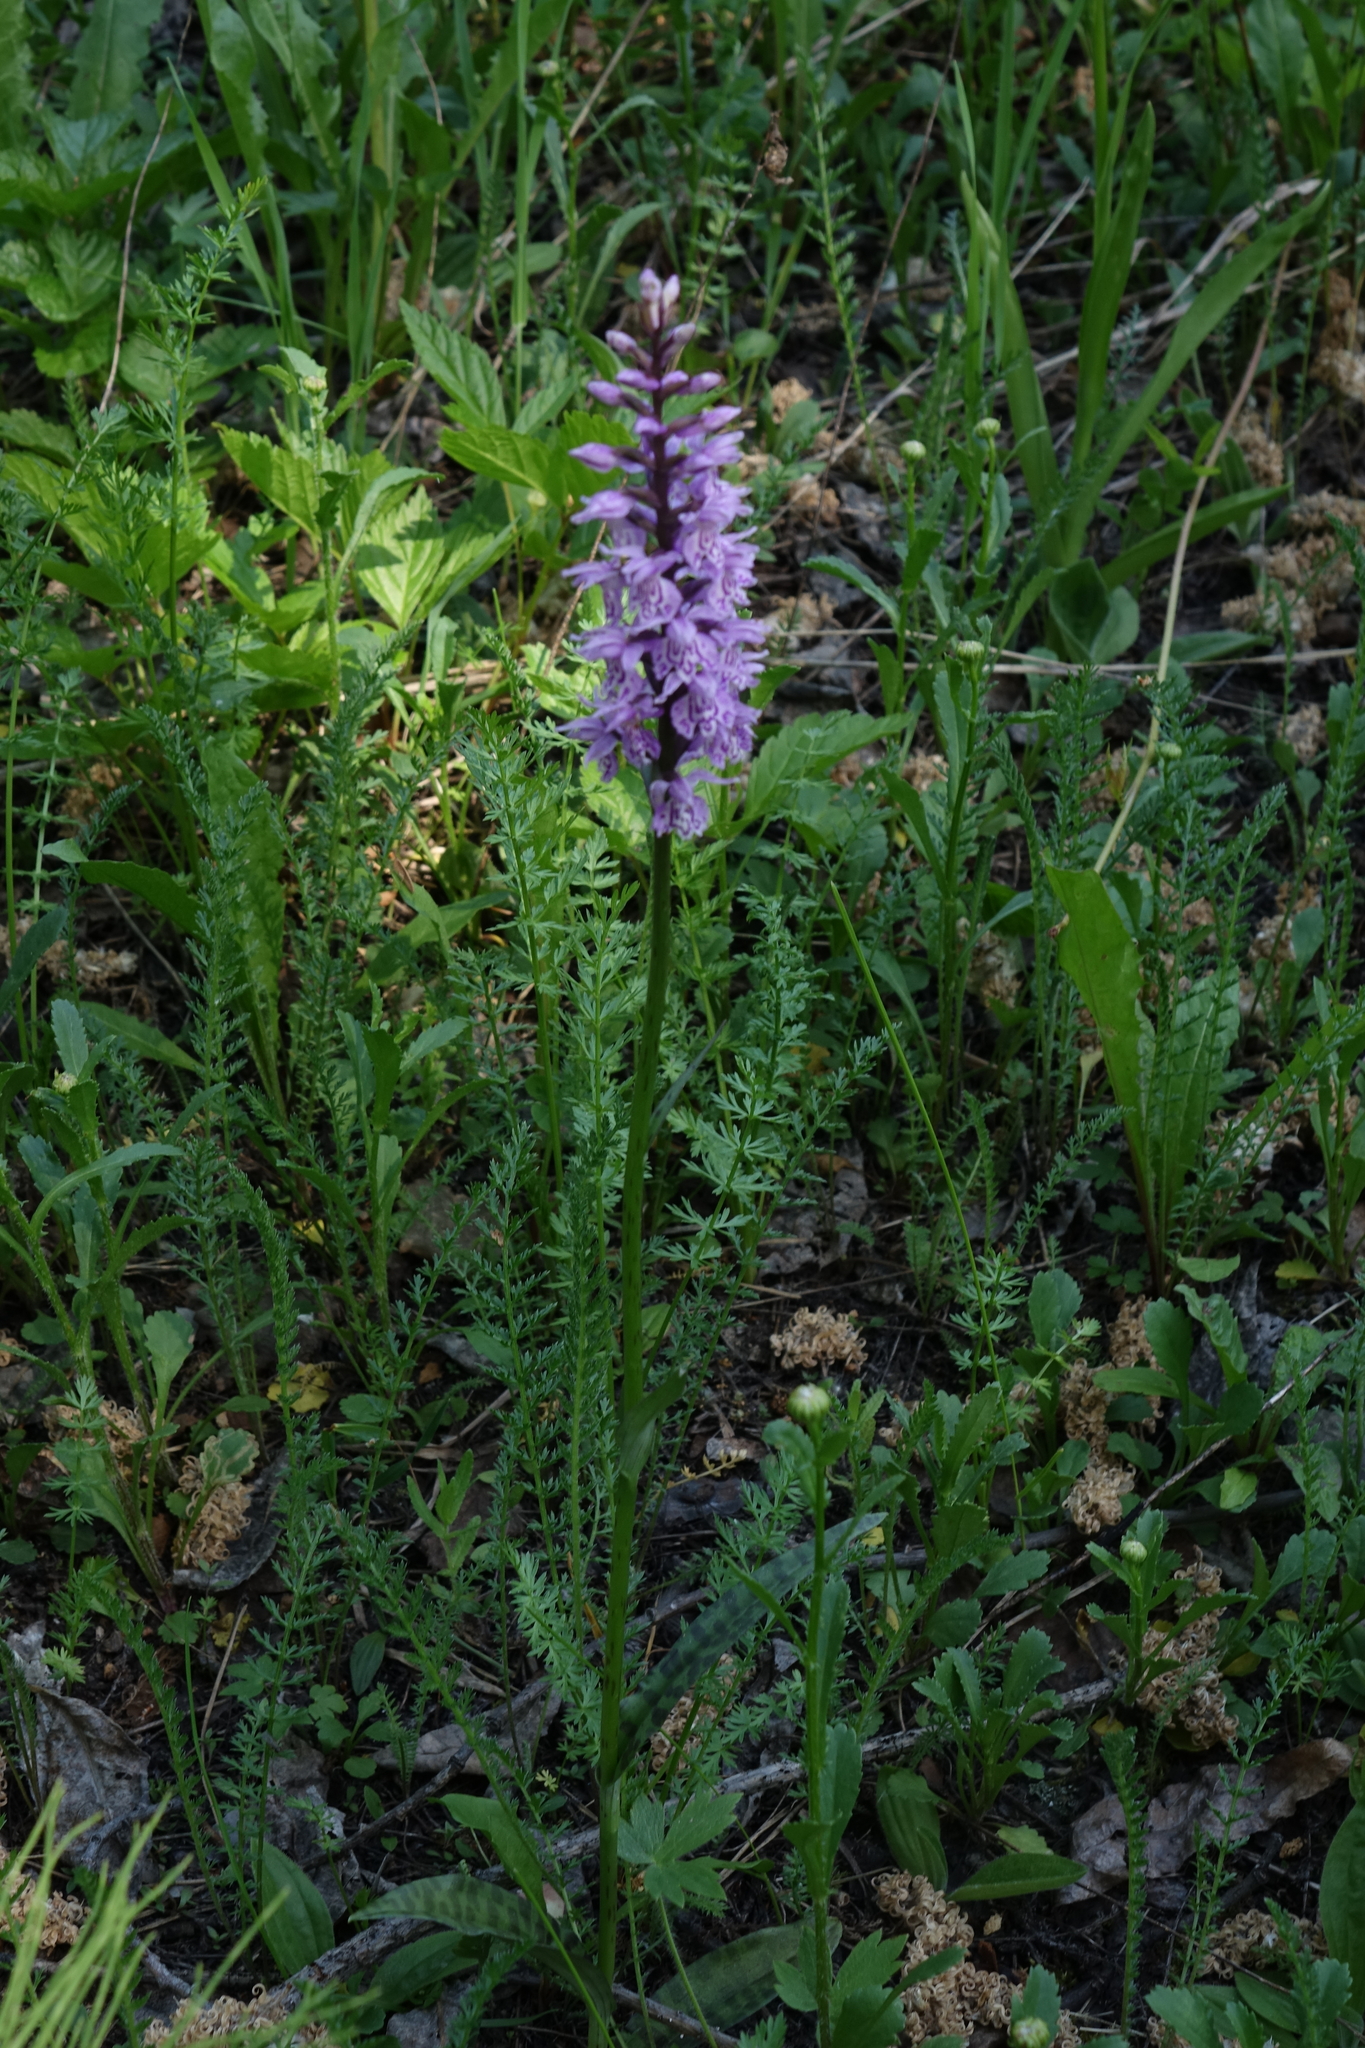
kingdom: Plantae
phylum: Tracheophyta
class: Liliopsida
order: Asparagales
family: Orchidaceae
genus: Dactylorhiza
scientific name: Dactylorhiza maculata
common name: Heath spotted-orchid
